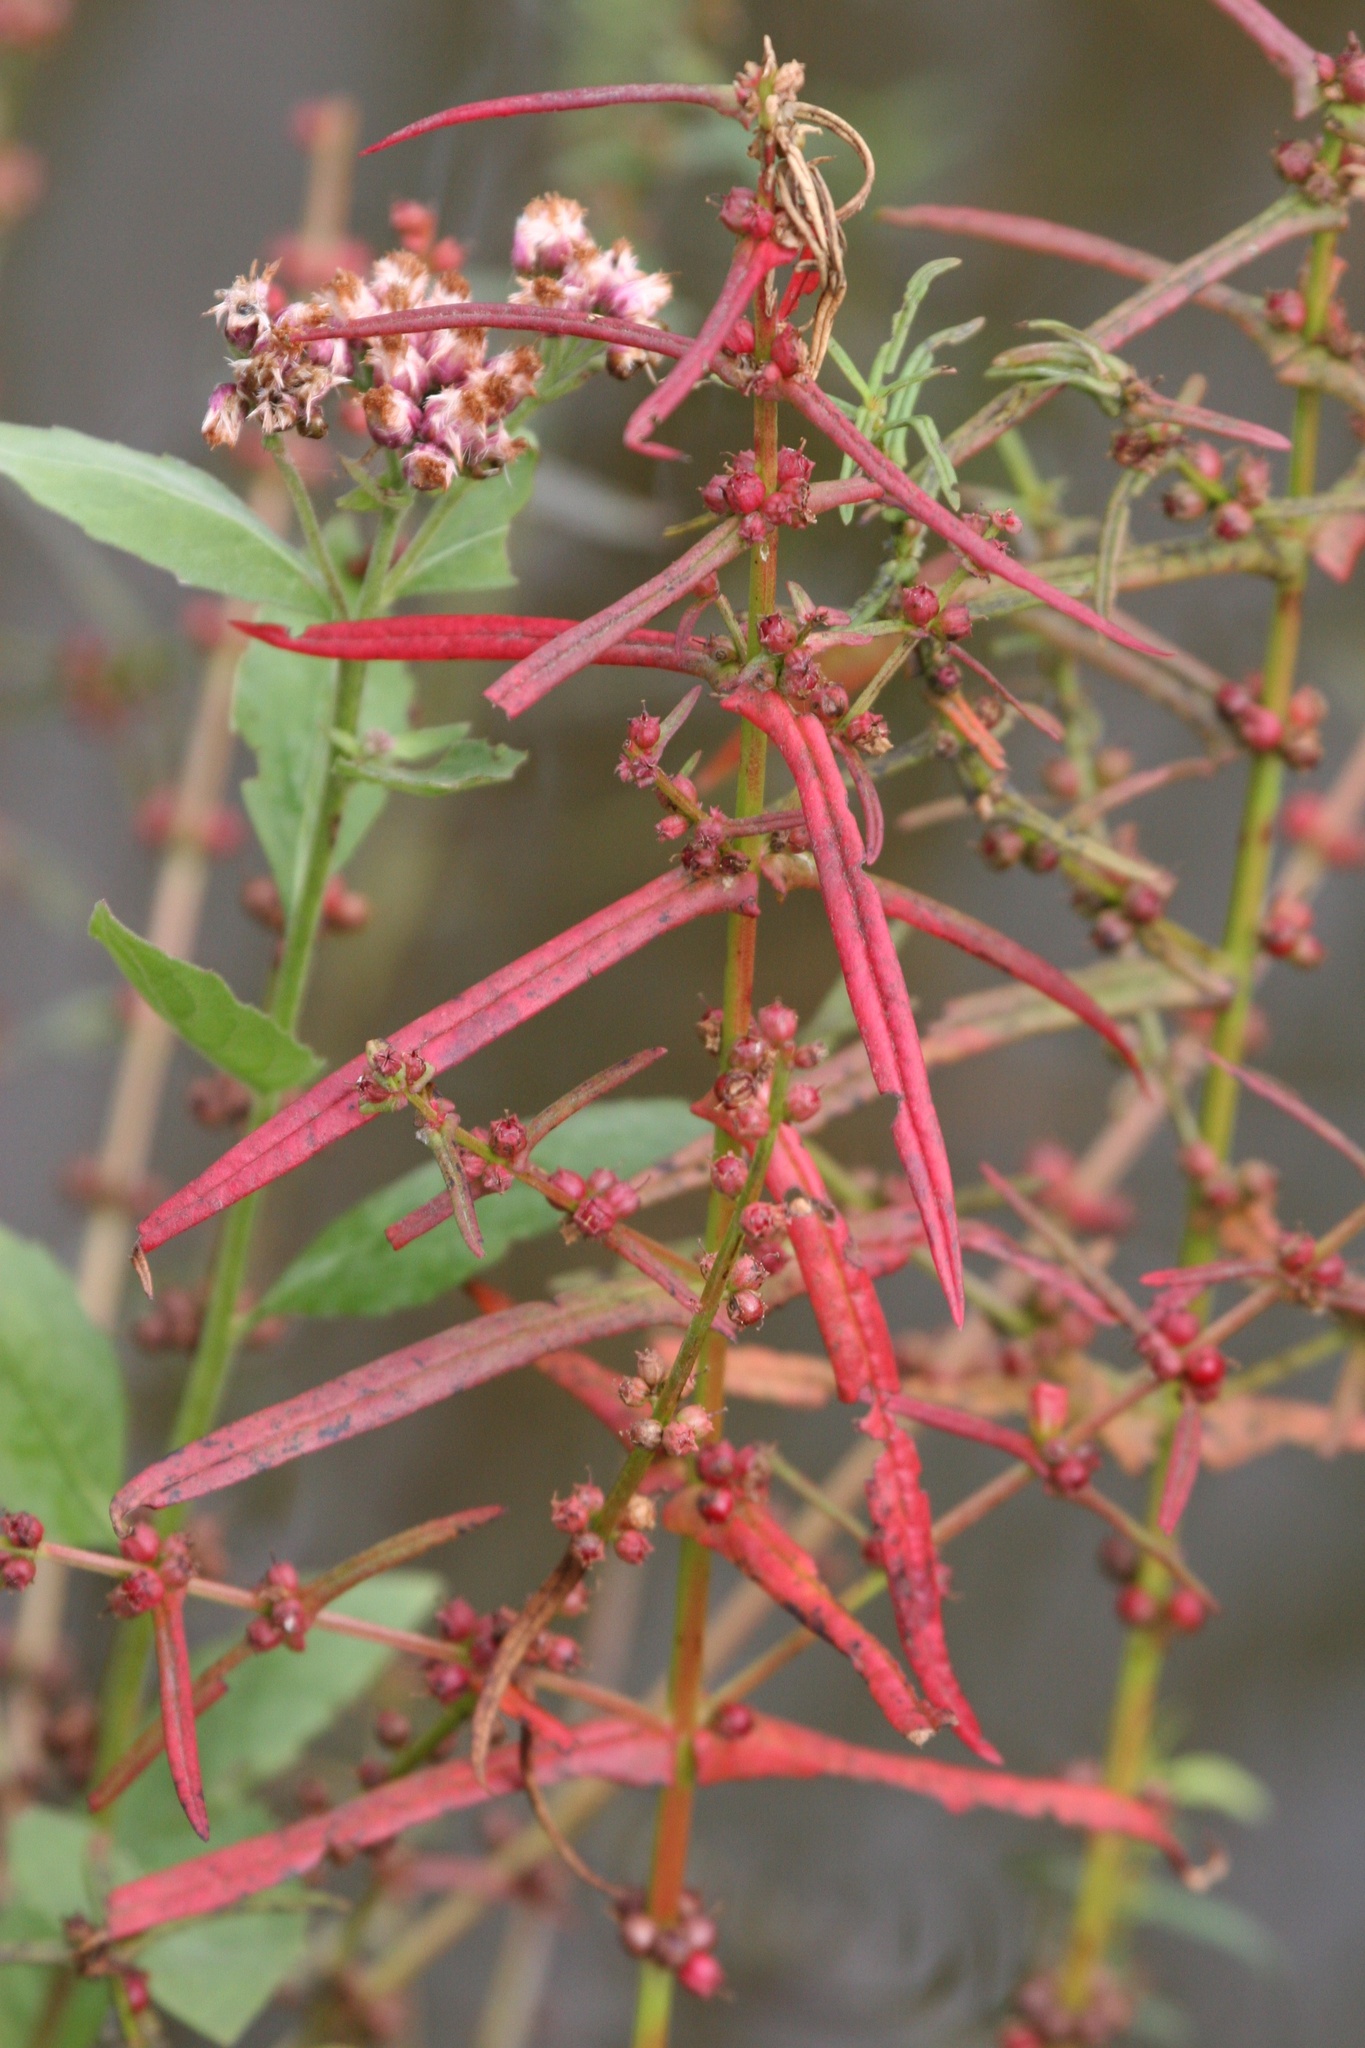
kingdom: Plantae
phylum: Tracheophyta
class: Magnoliopsida
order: Myrtales
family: Lythraceae
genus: Ammannia
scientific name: Ammannia coccinea
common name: Valley redstem
